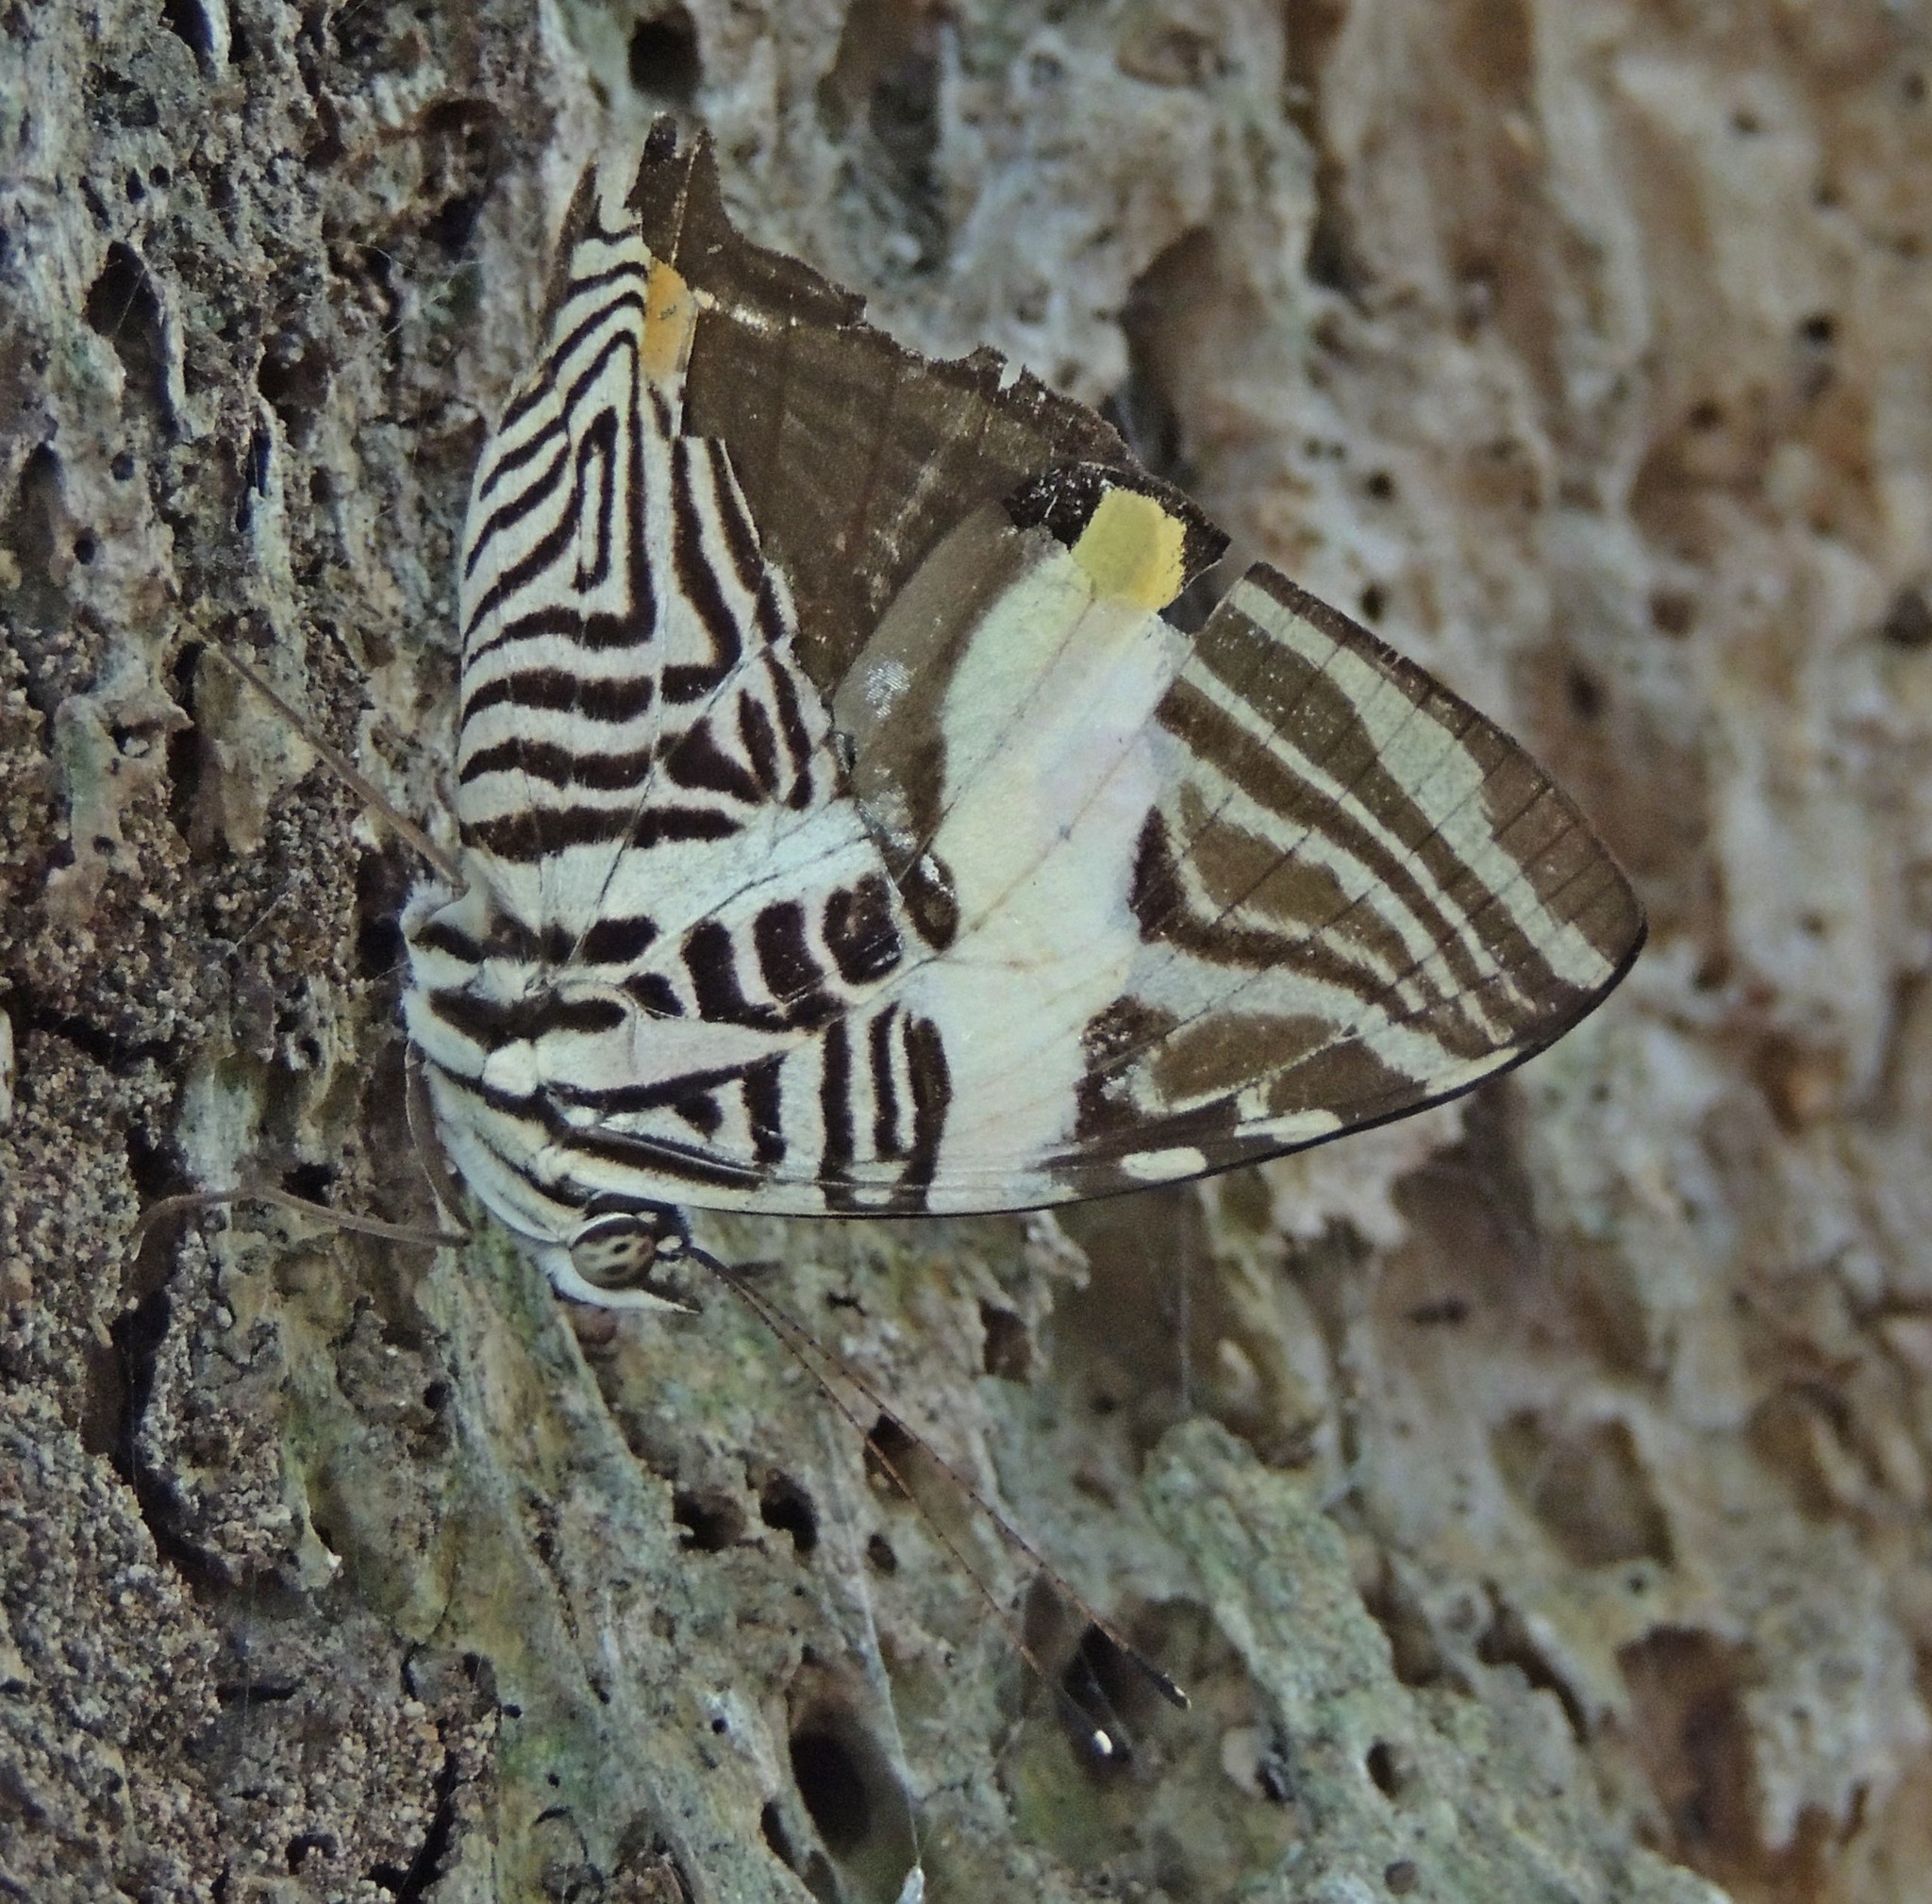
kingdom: Animalia
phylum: Arthropoda
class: Insecta
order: Lepidoptera
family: Nymphalidae
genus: Colobura
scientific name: Colobura dirce
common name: Dirce beauty
